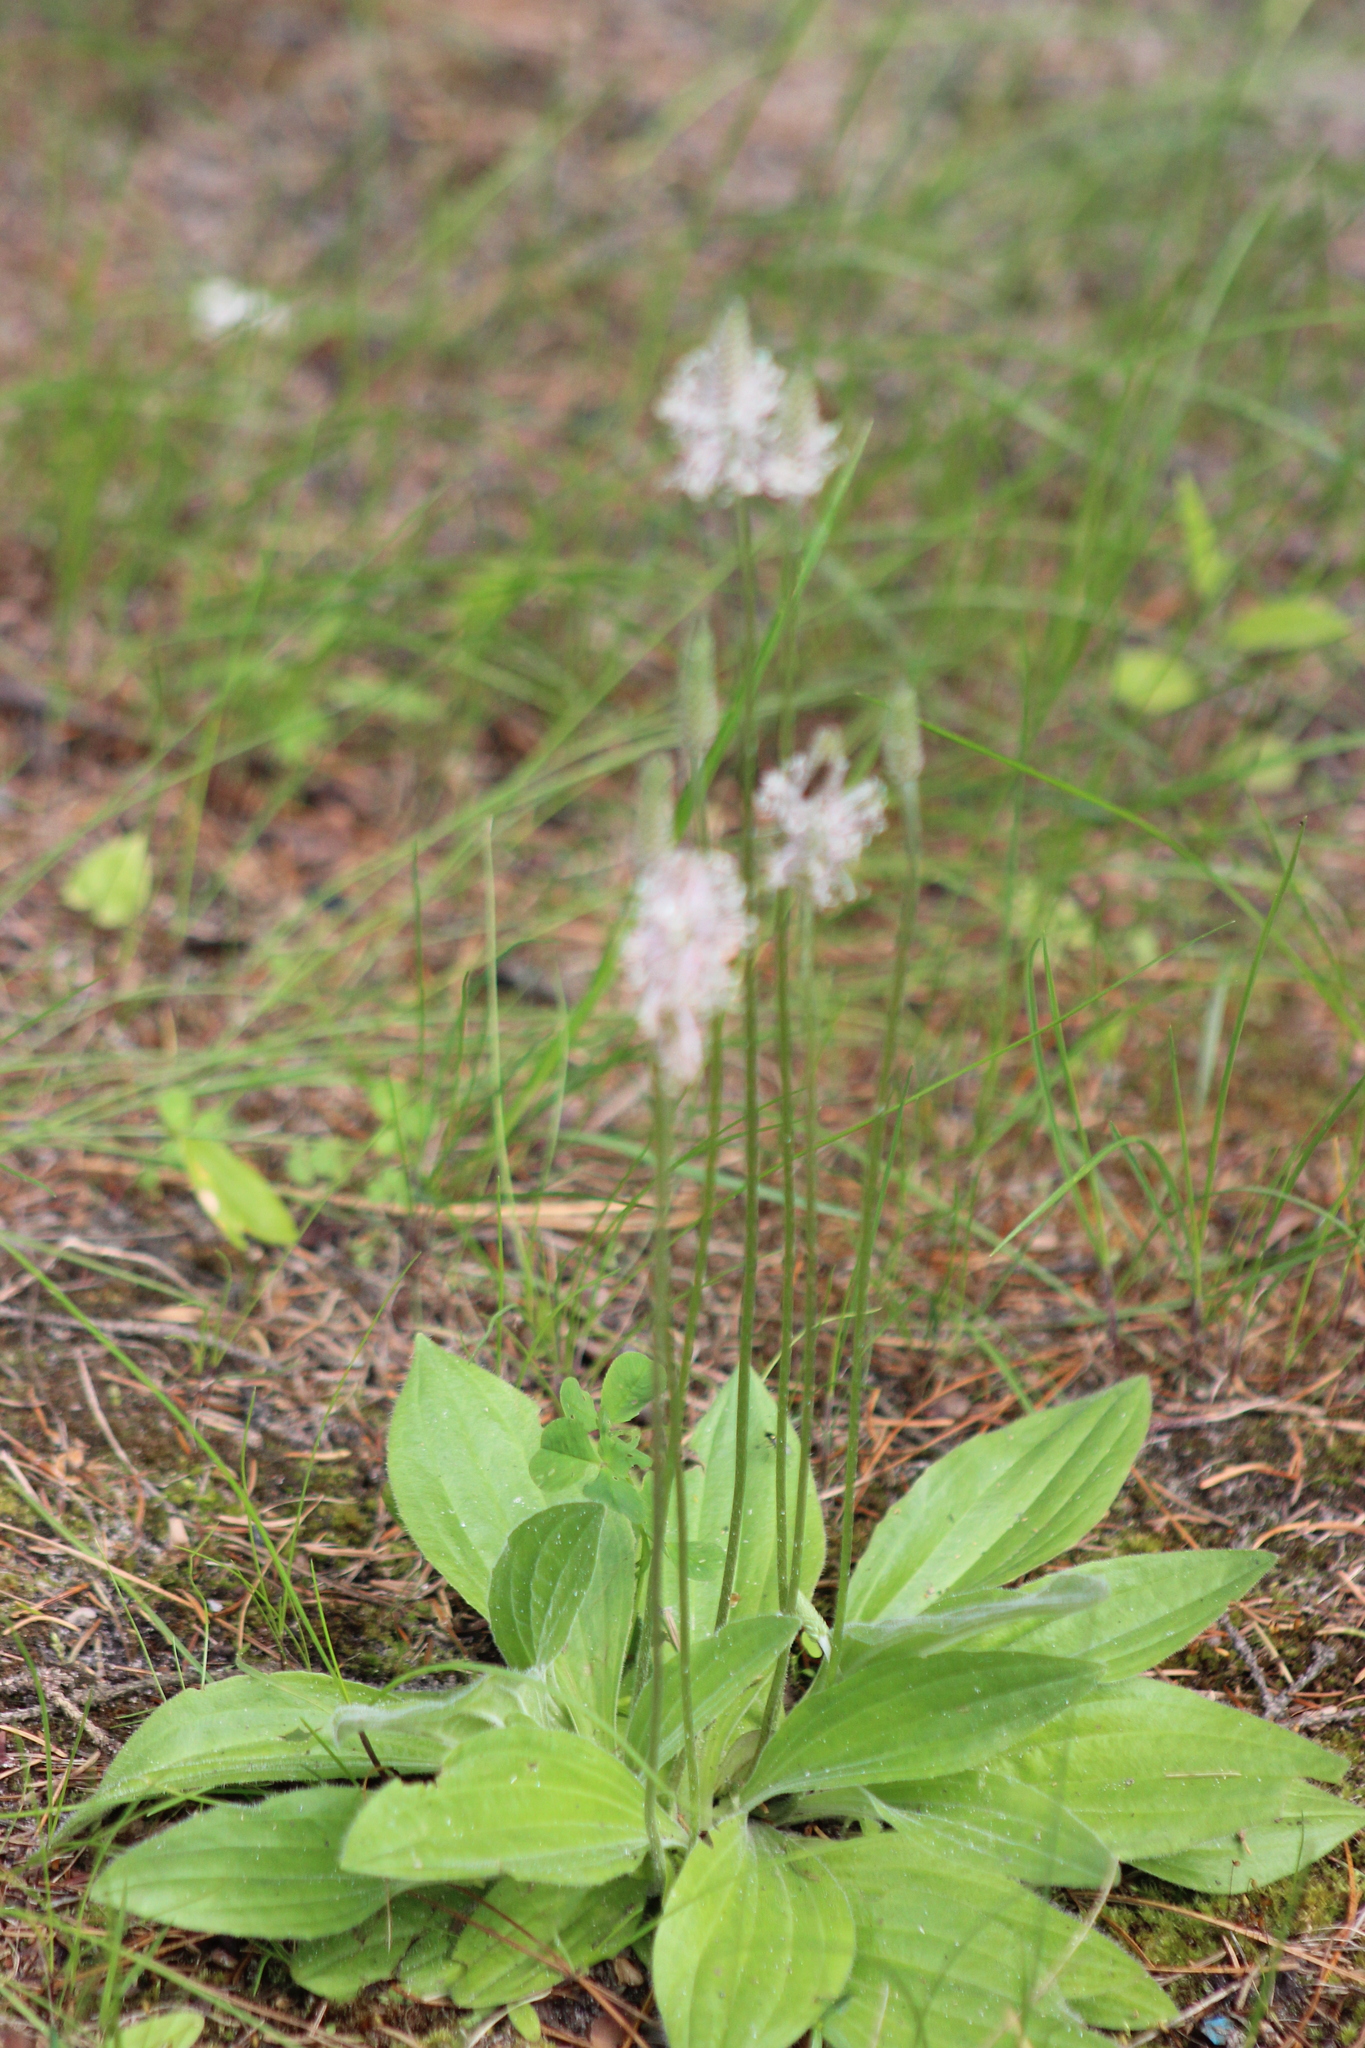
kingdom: Plantae
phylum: Tracheophyta
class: Magnoliopsida
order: Lamiales
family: Plantaginaceae
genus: Plantago
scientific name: Plantago media
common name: Hoary plantain
